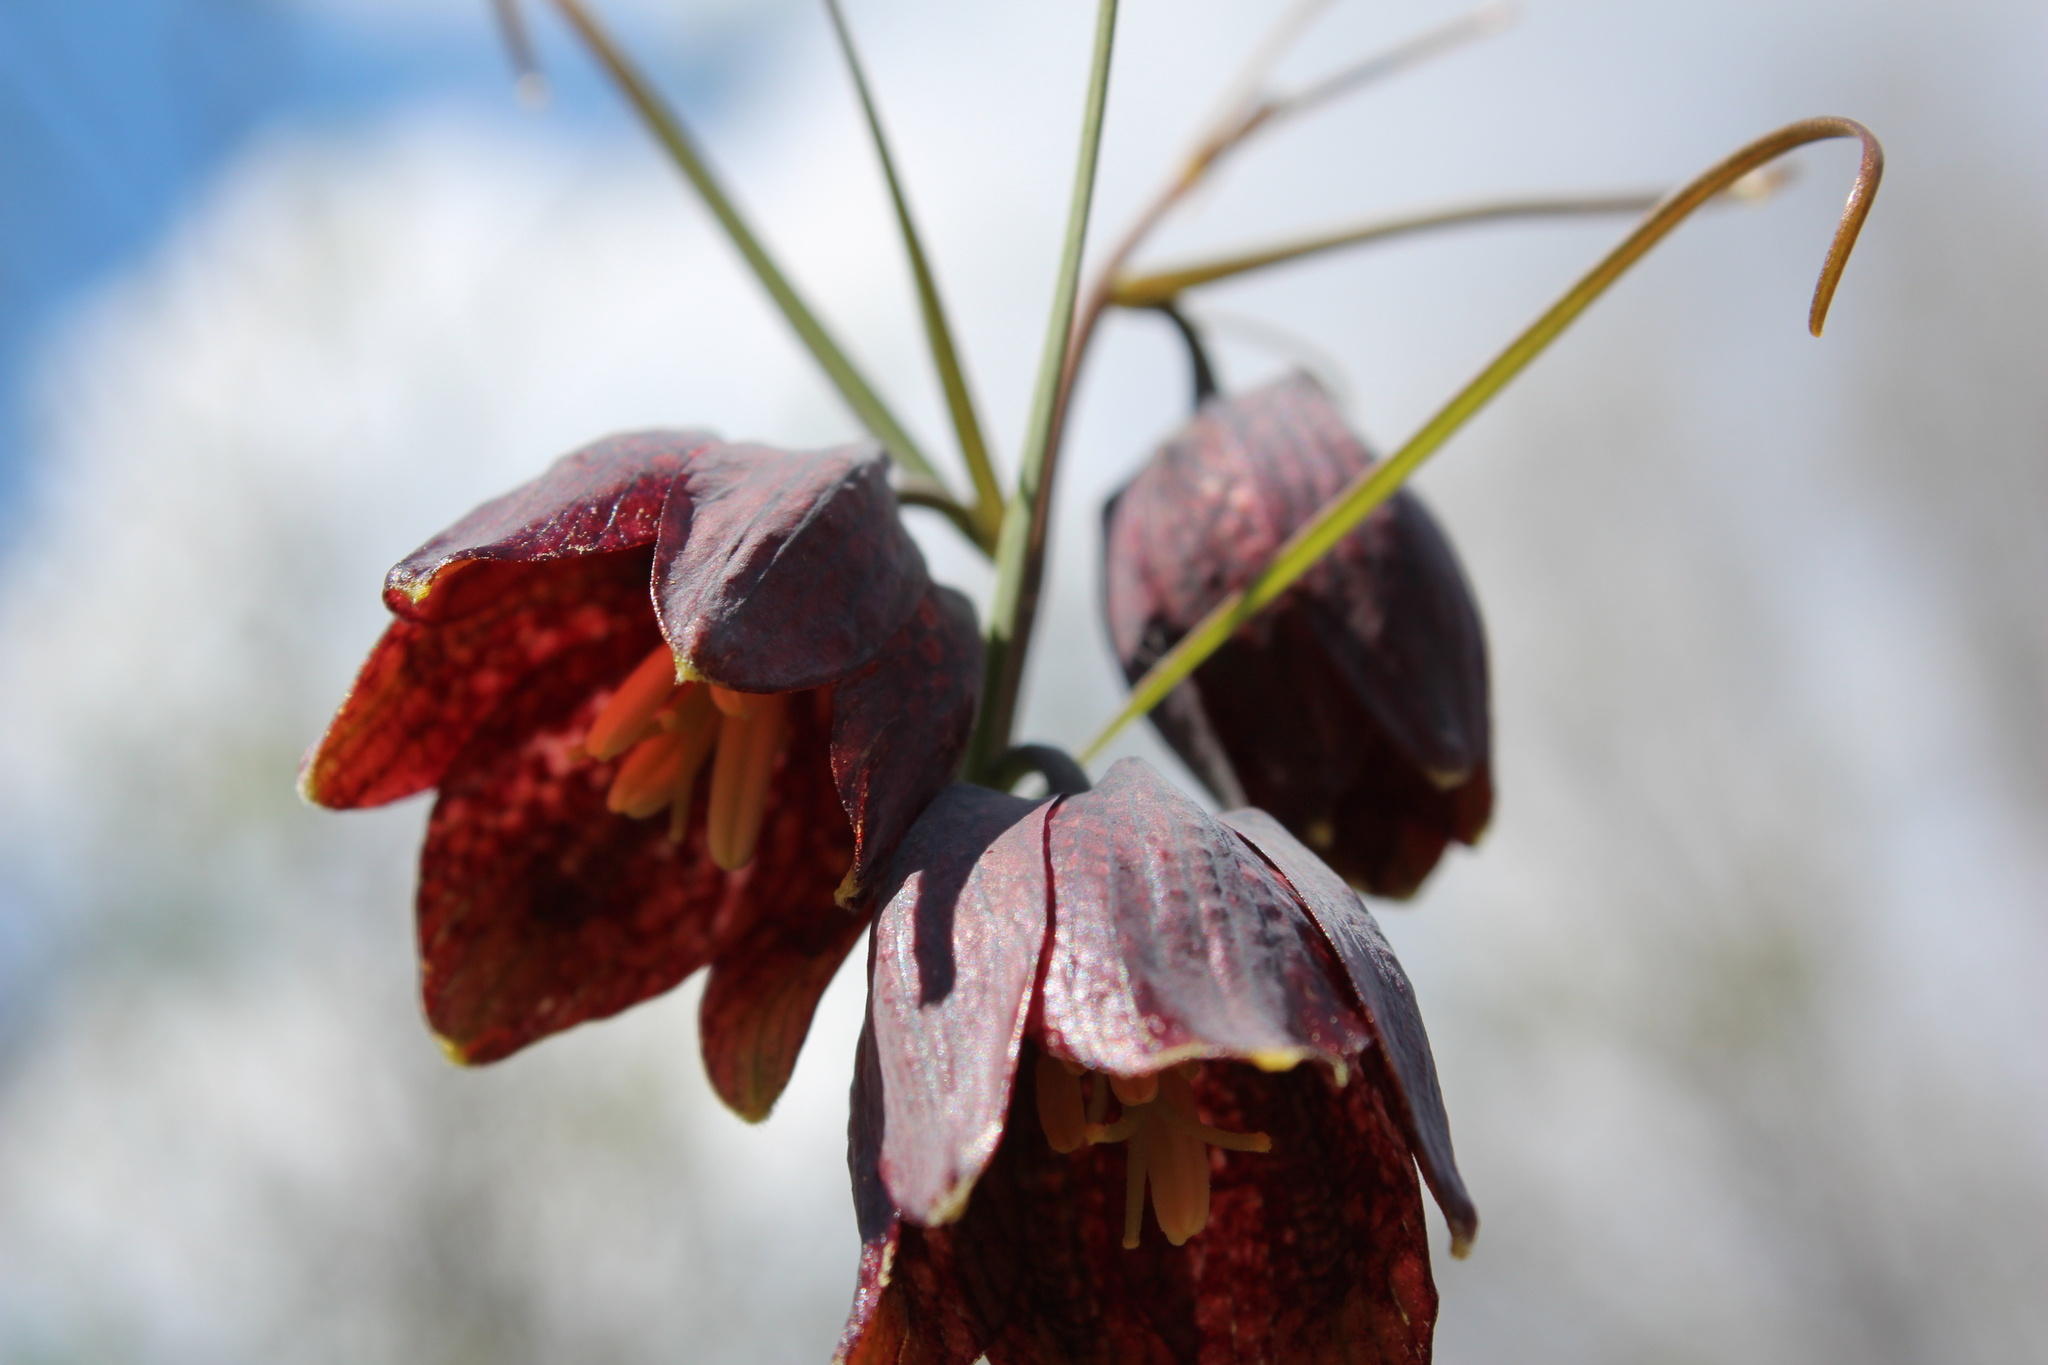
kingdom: Plantae
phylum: Tracheophyta
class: Liliopsida
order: Liliales
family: Liliaceae
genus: Fritillaria
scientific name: Fritillaria ruthenica
